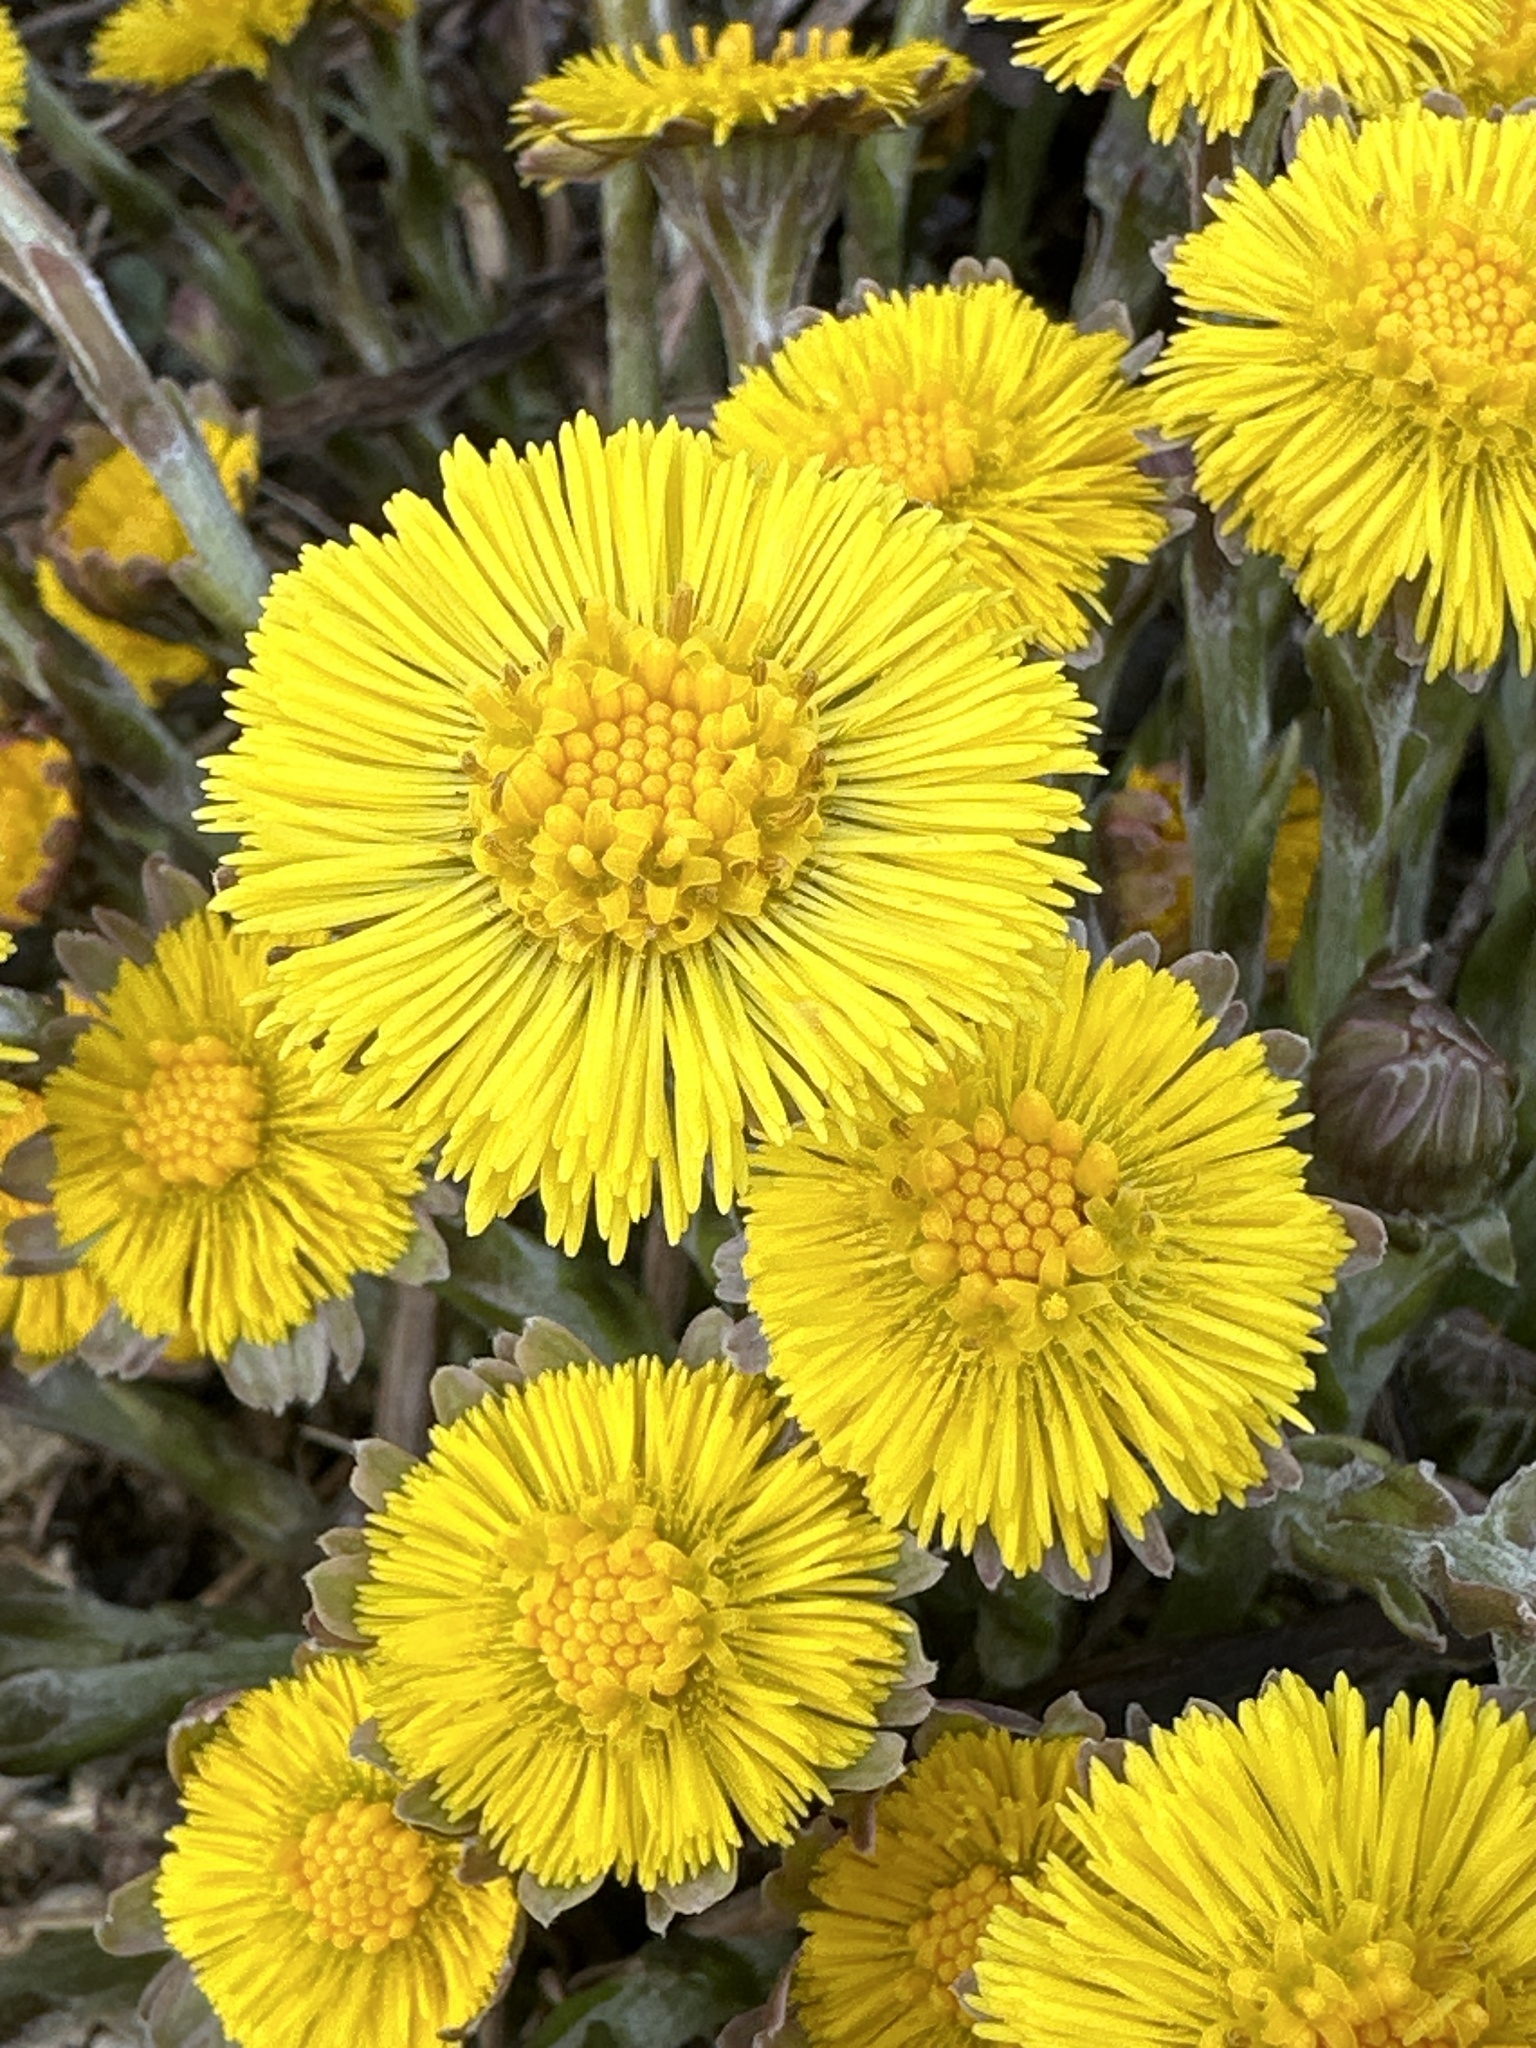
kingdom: Plantae
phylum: Tracheophyta
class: Magnoliopsida
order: Asterales
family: Asteraceae
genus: Tussilago
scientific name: Tussilago farfara
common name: Coltsfoot
